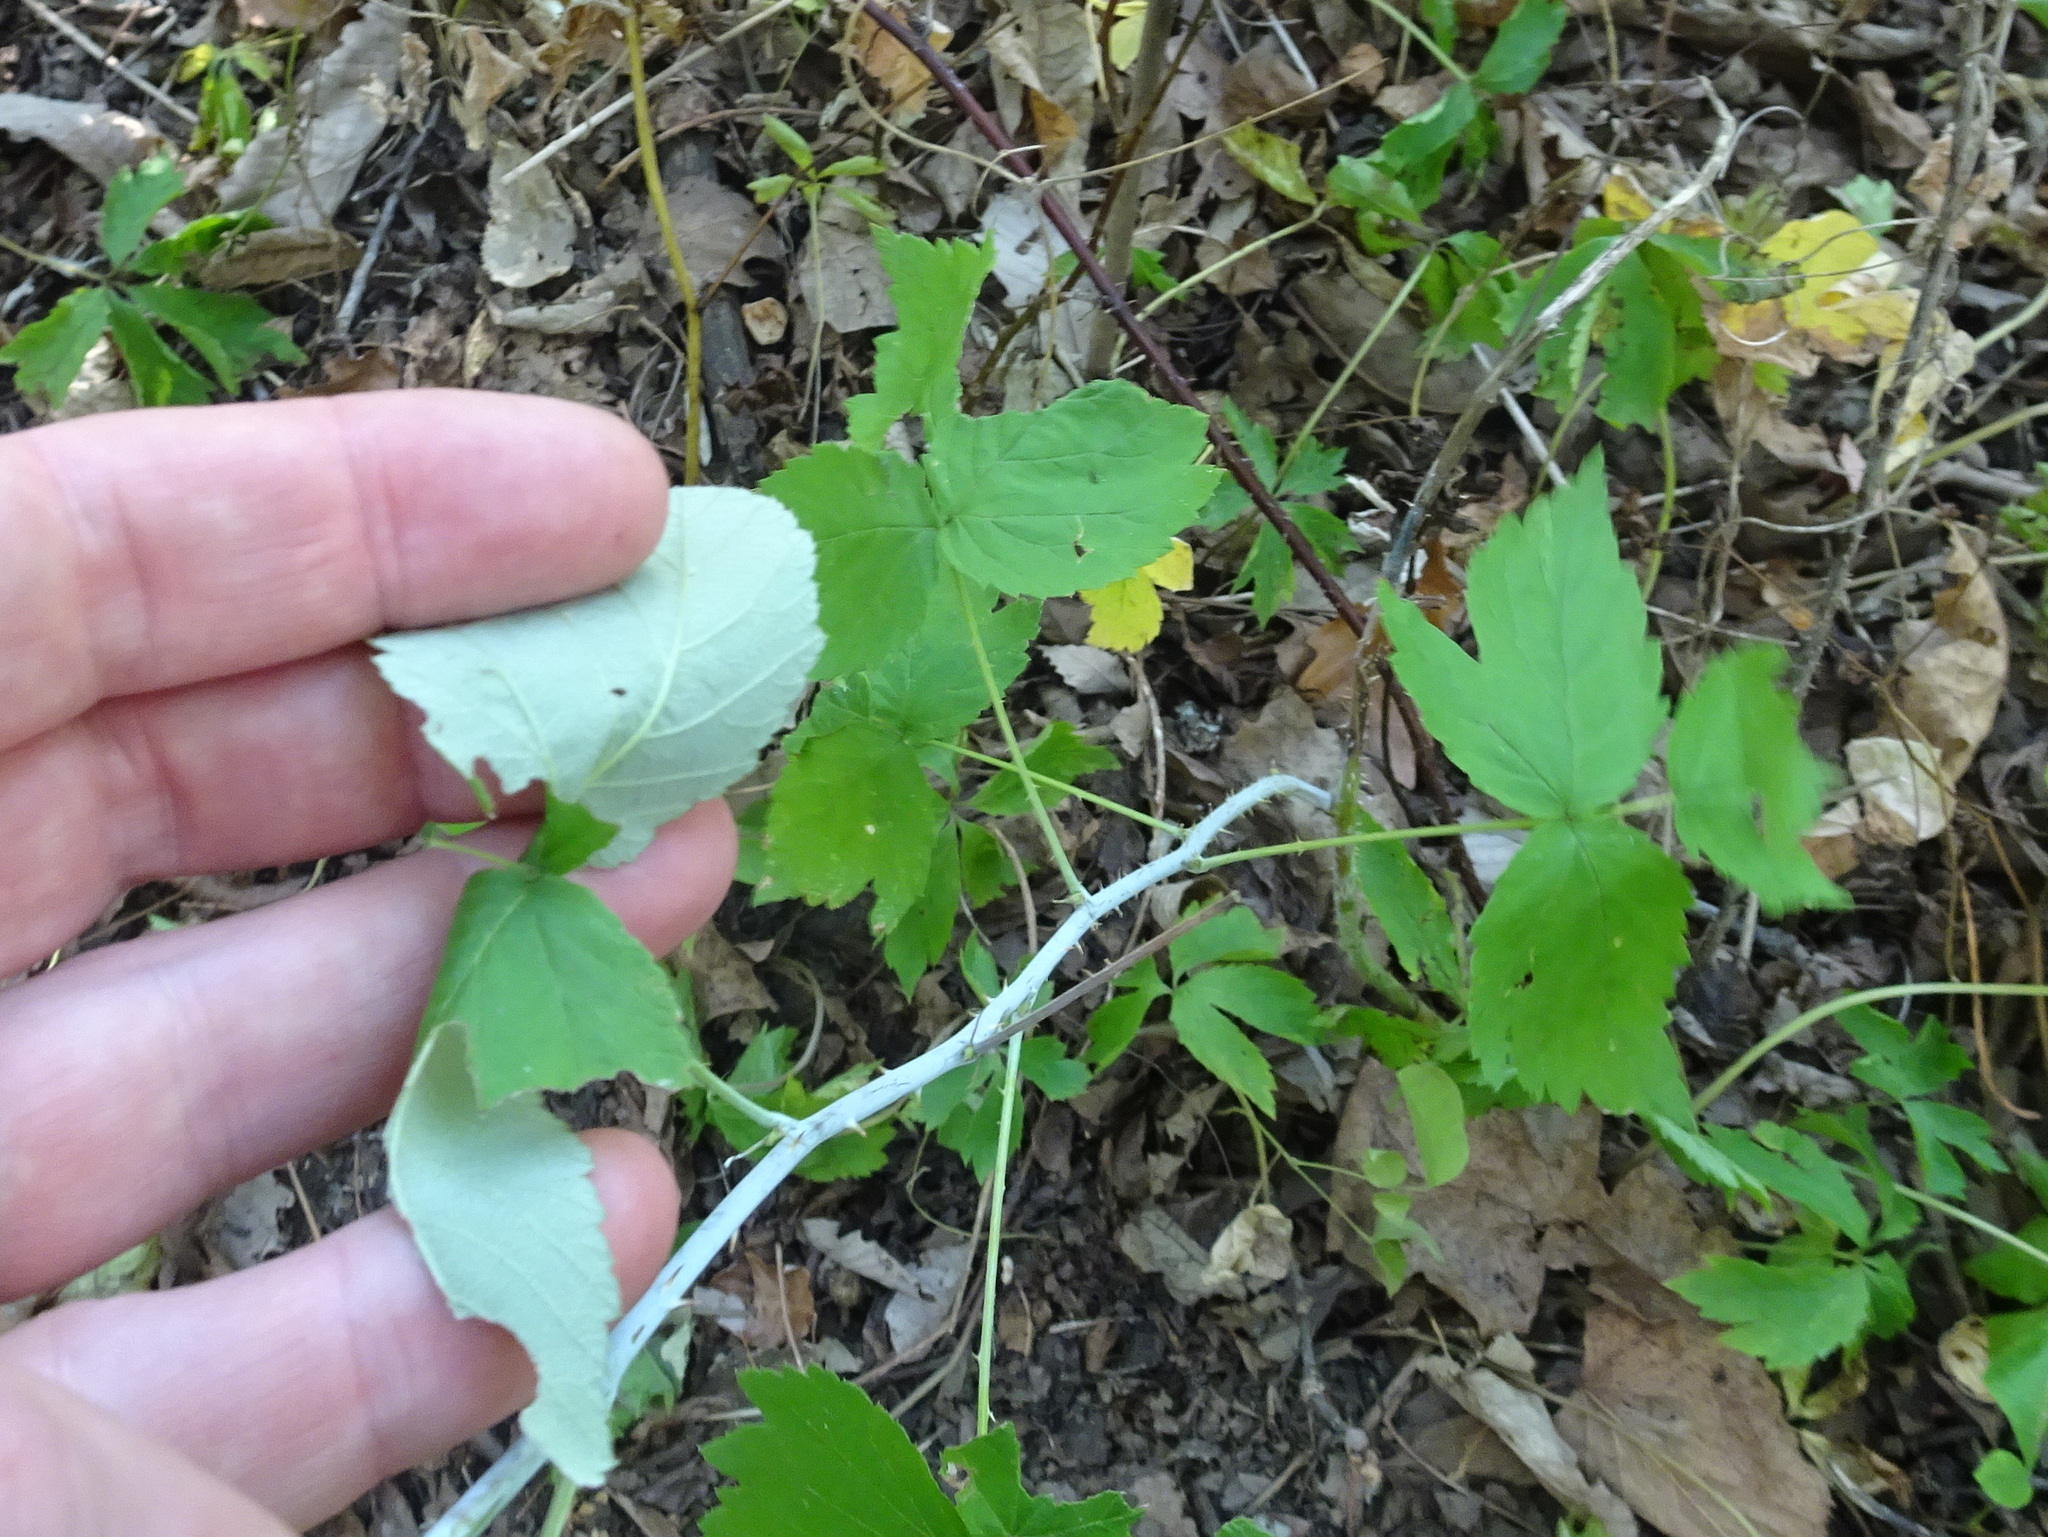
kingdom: Plantae
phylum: Tracheophyta
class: Magnoliopsida
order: Rosales
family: Rosaceae
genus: Rubus
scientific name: Rubus occidentalis
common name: Black raspberry
